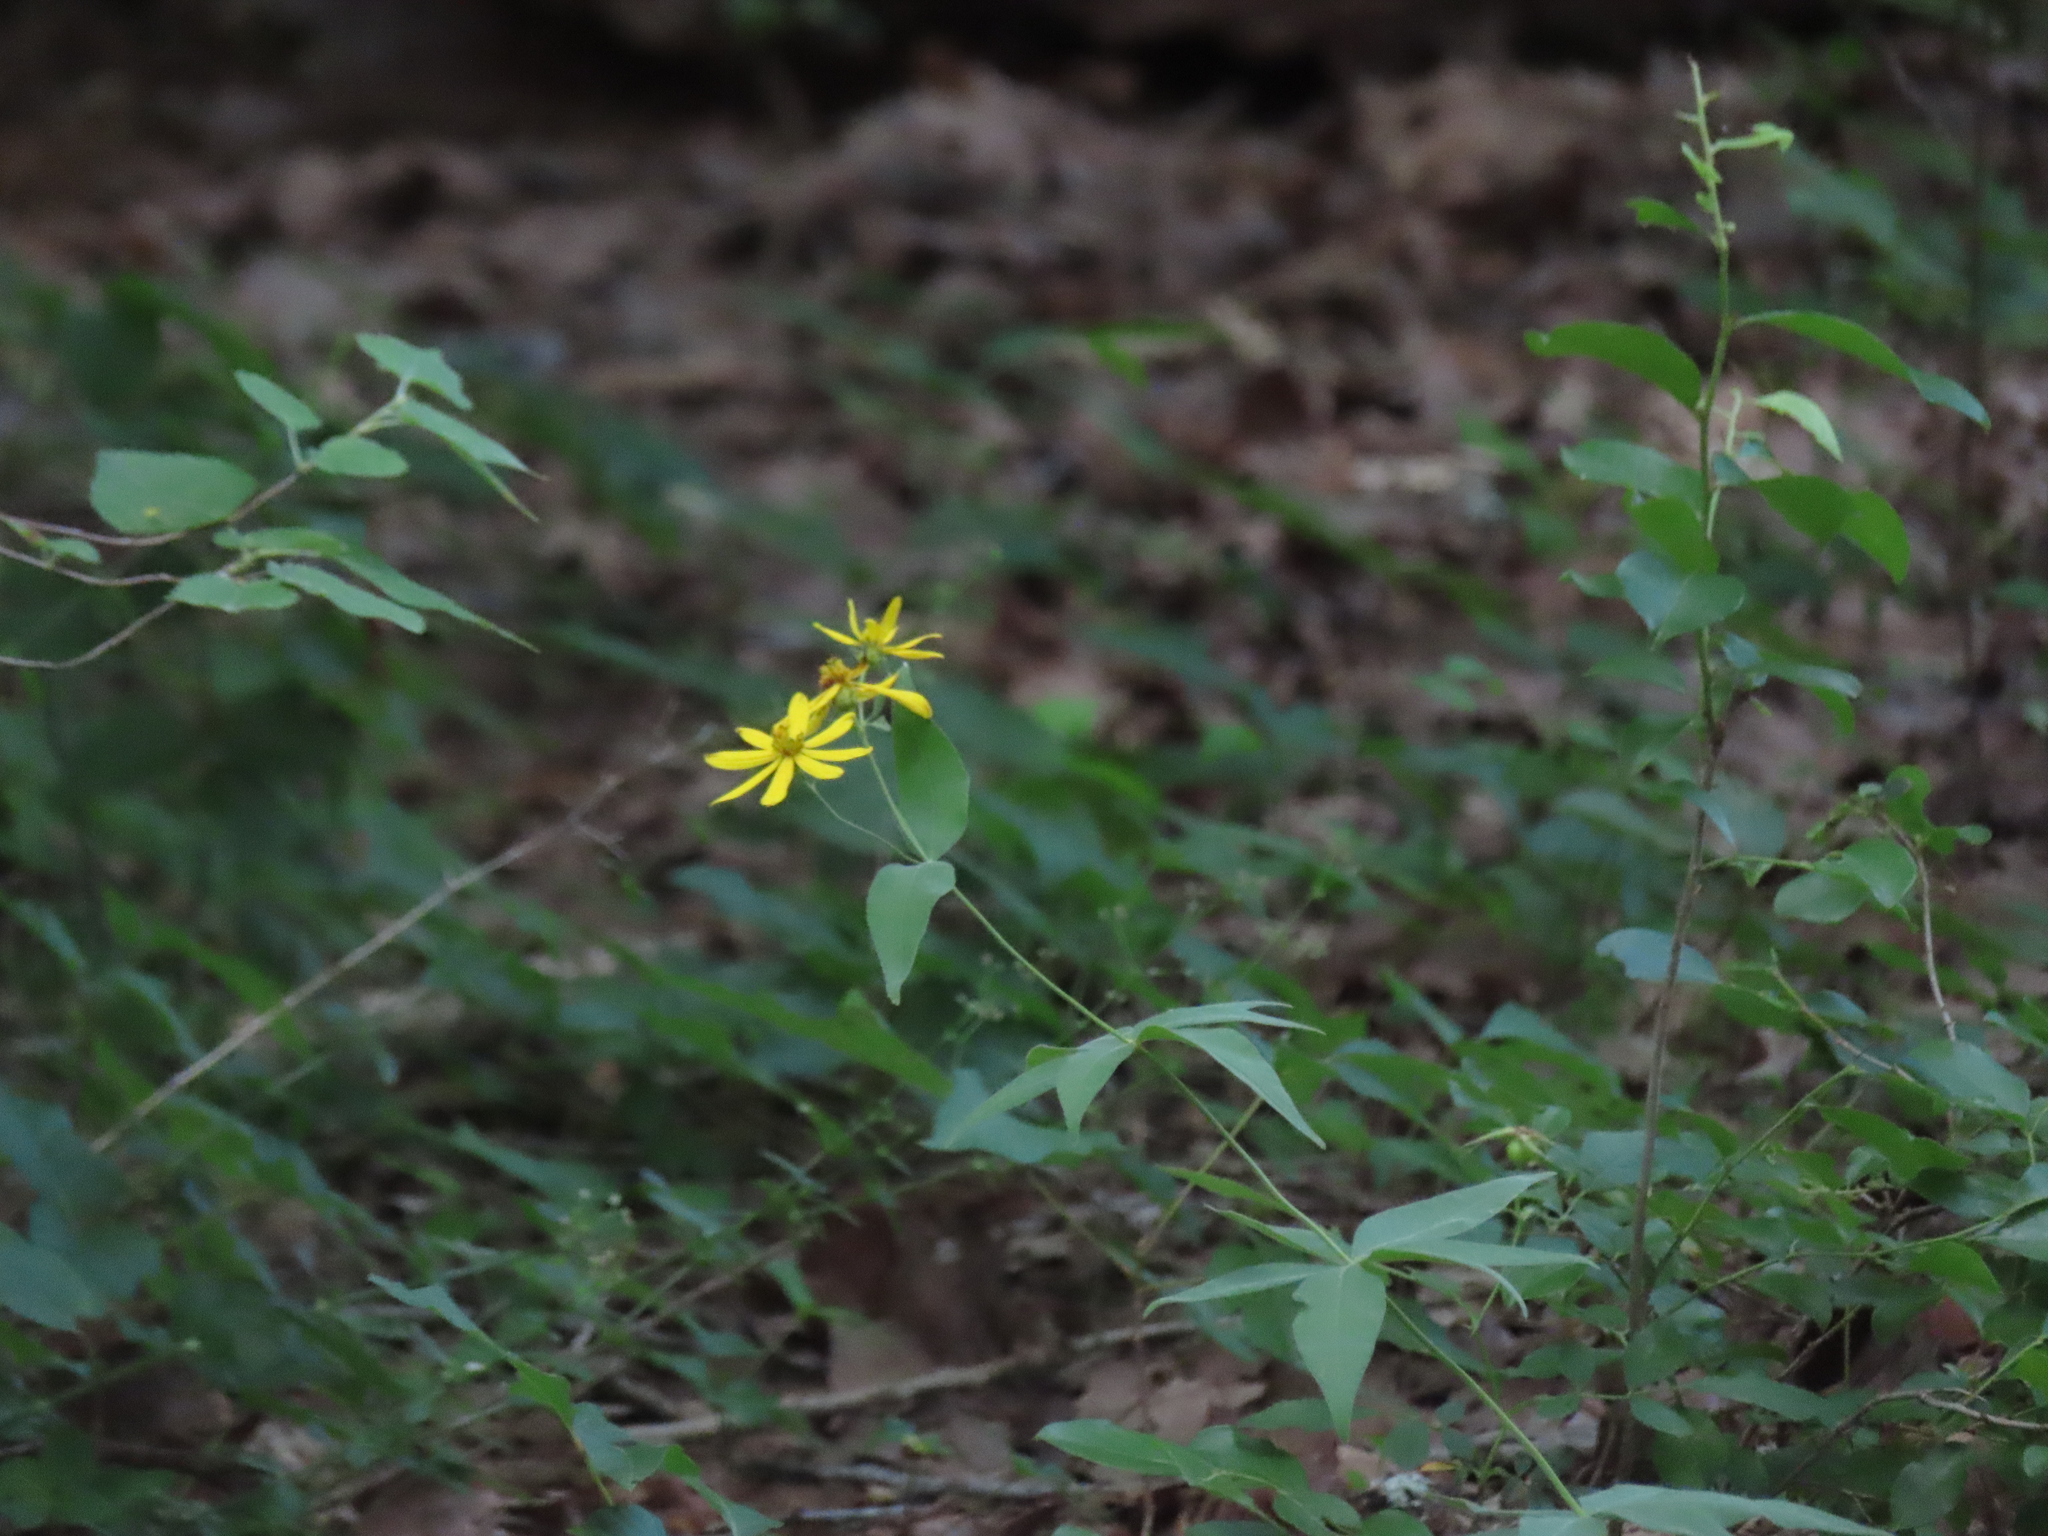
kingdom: Plantae
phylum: Tracheophyta
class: Magnoliopsida
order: Asterales
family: Asteraceae
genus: Coreopsis
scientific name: Coreopsis major
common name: Forest tickseed
